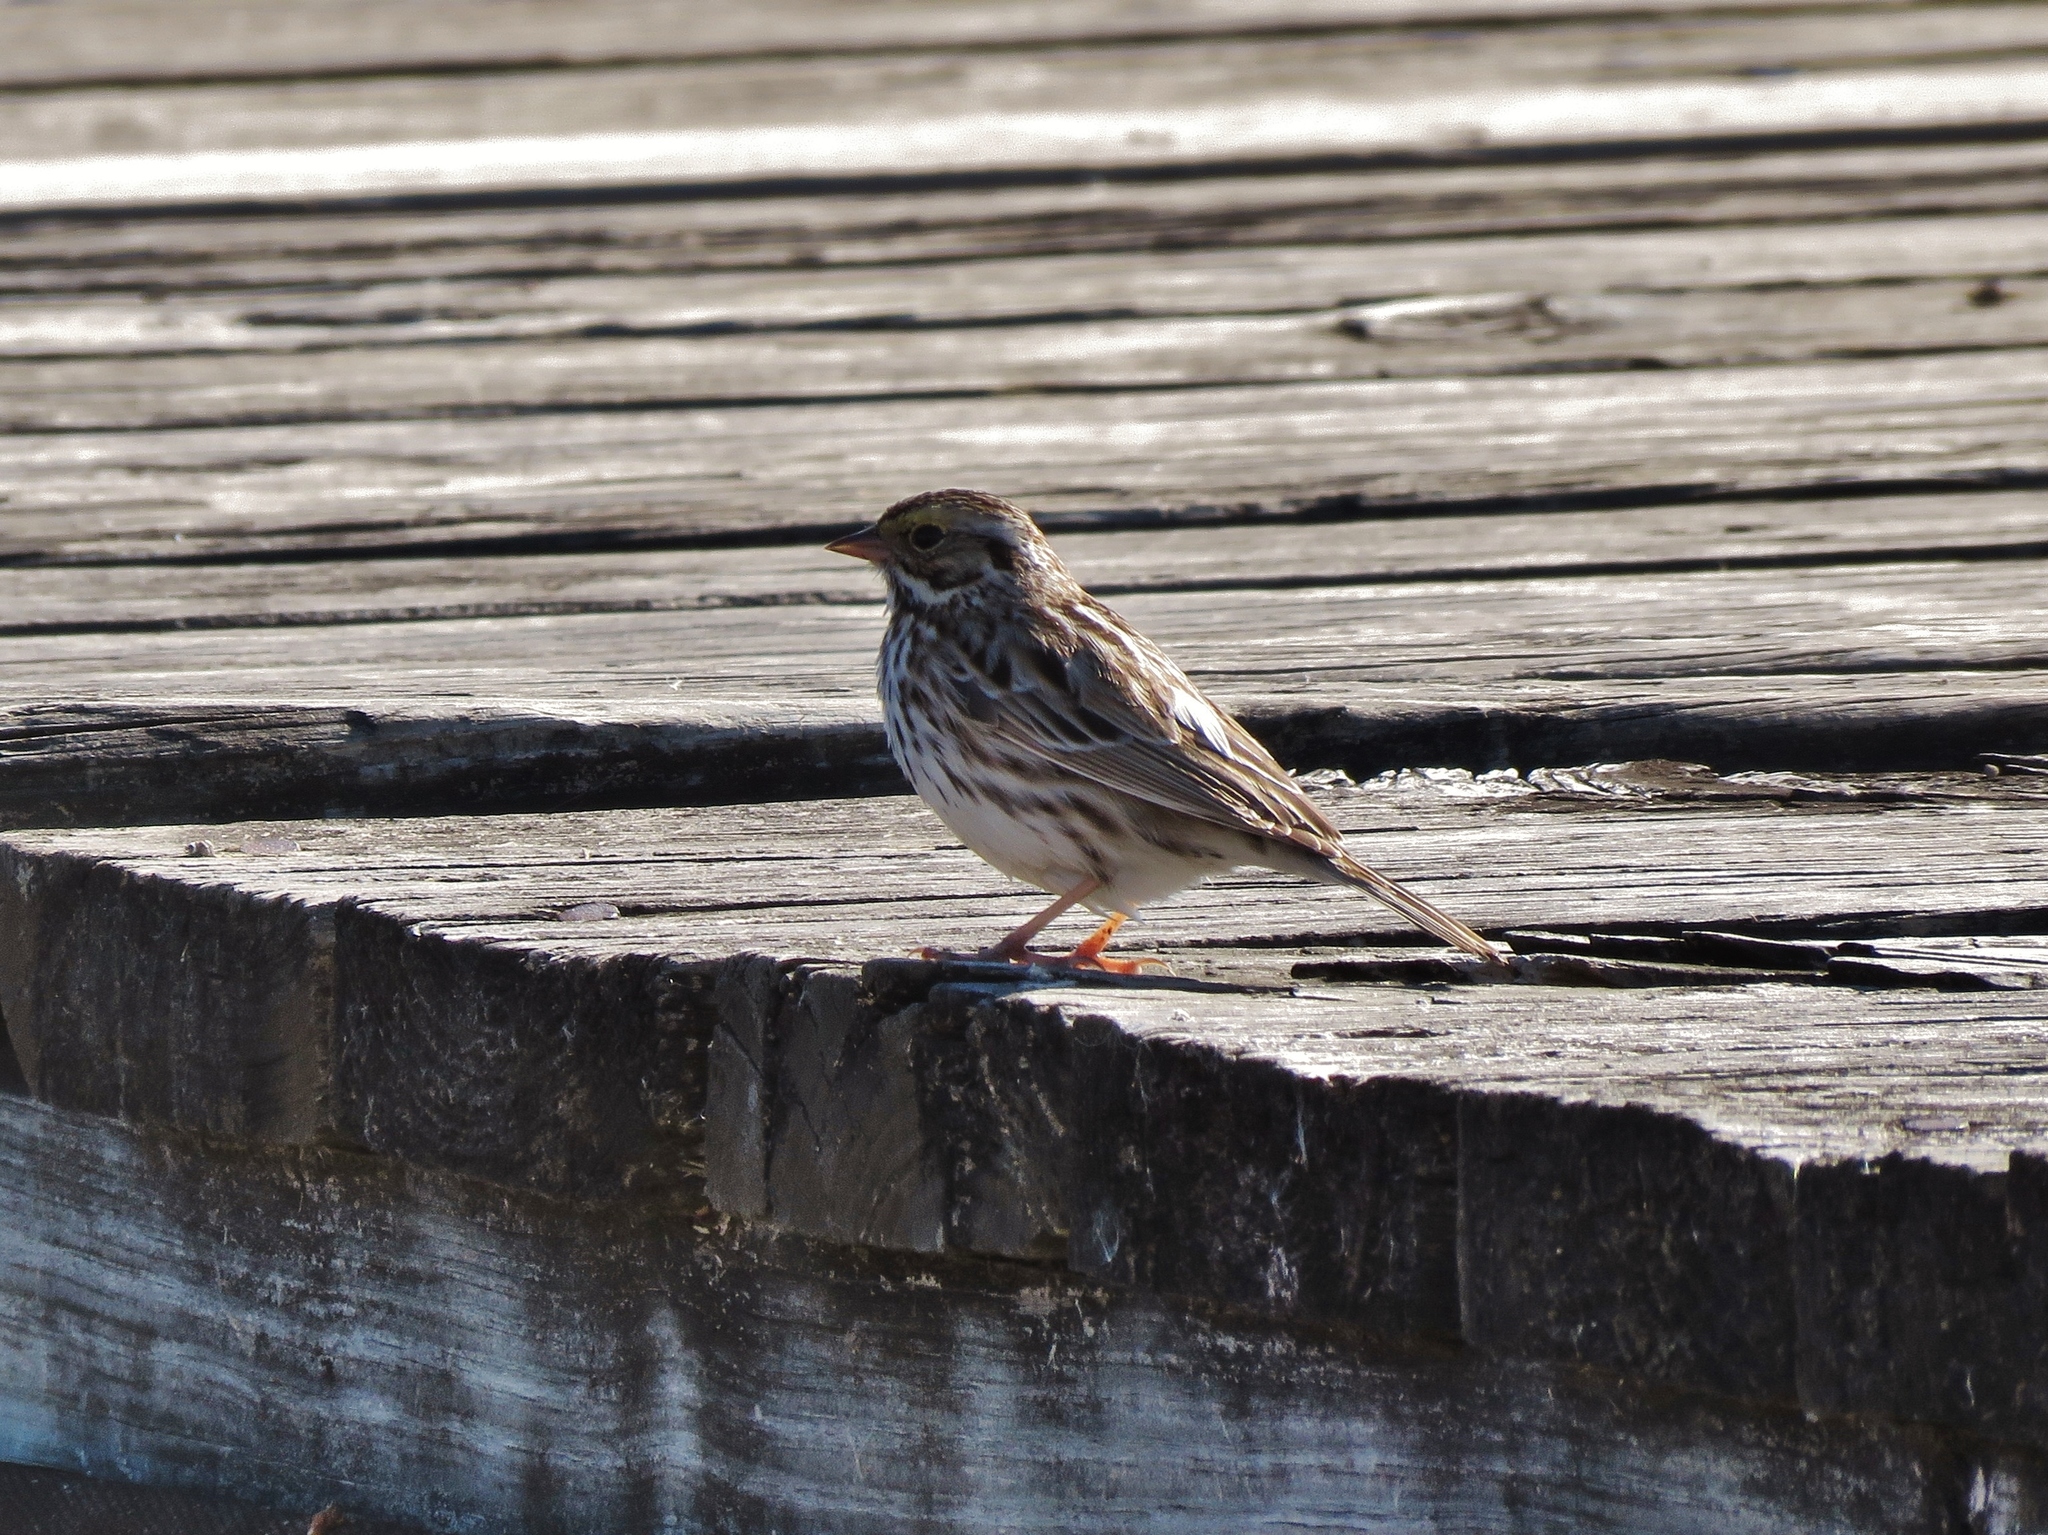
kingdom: Animalia
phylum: Chordata
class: Aves
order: Passeriformes
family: Passerellidae
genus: Passerculus
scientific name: Passerculus sandwichensis
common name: Savannah sparrow
